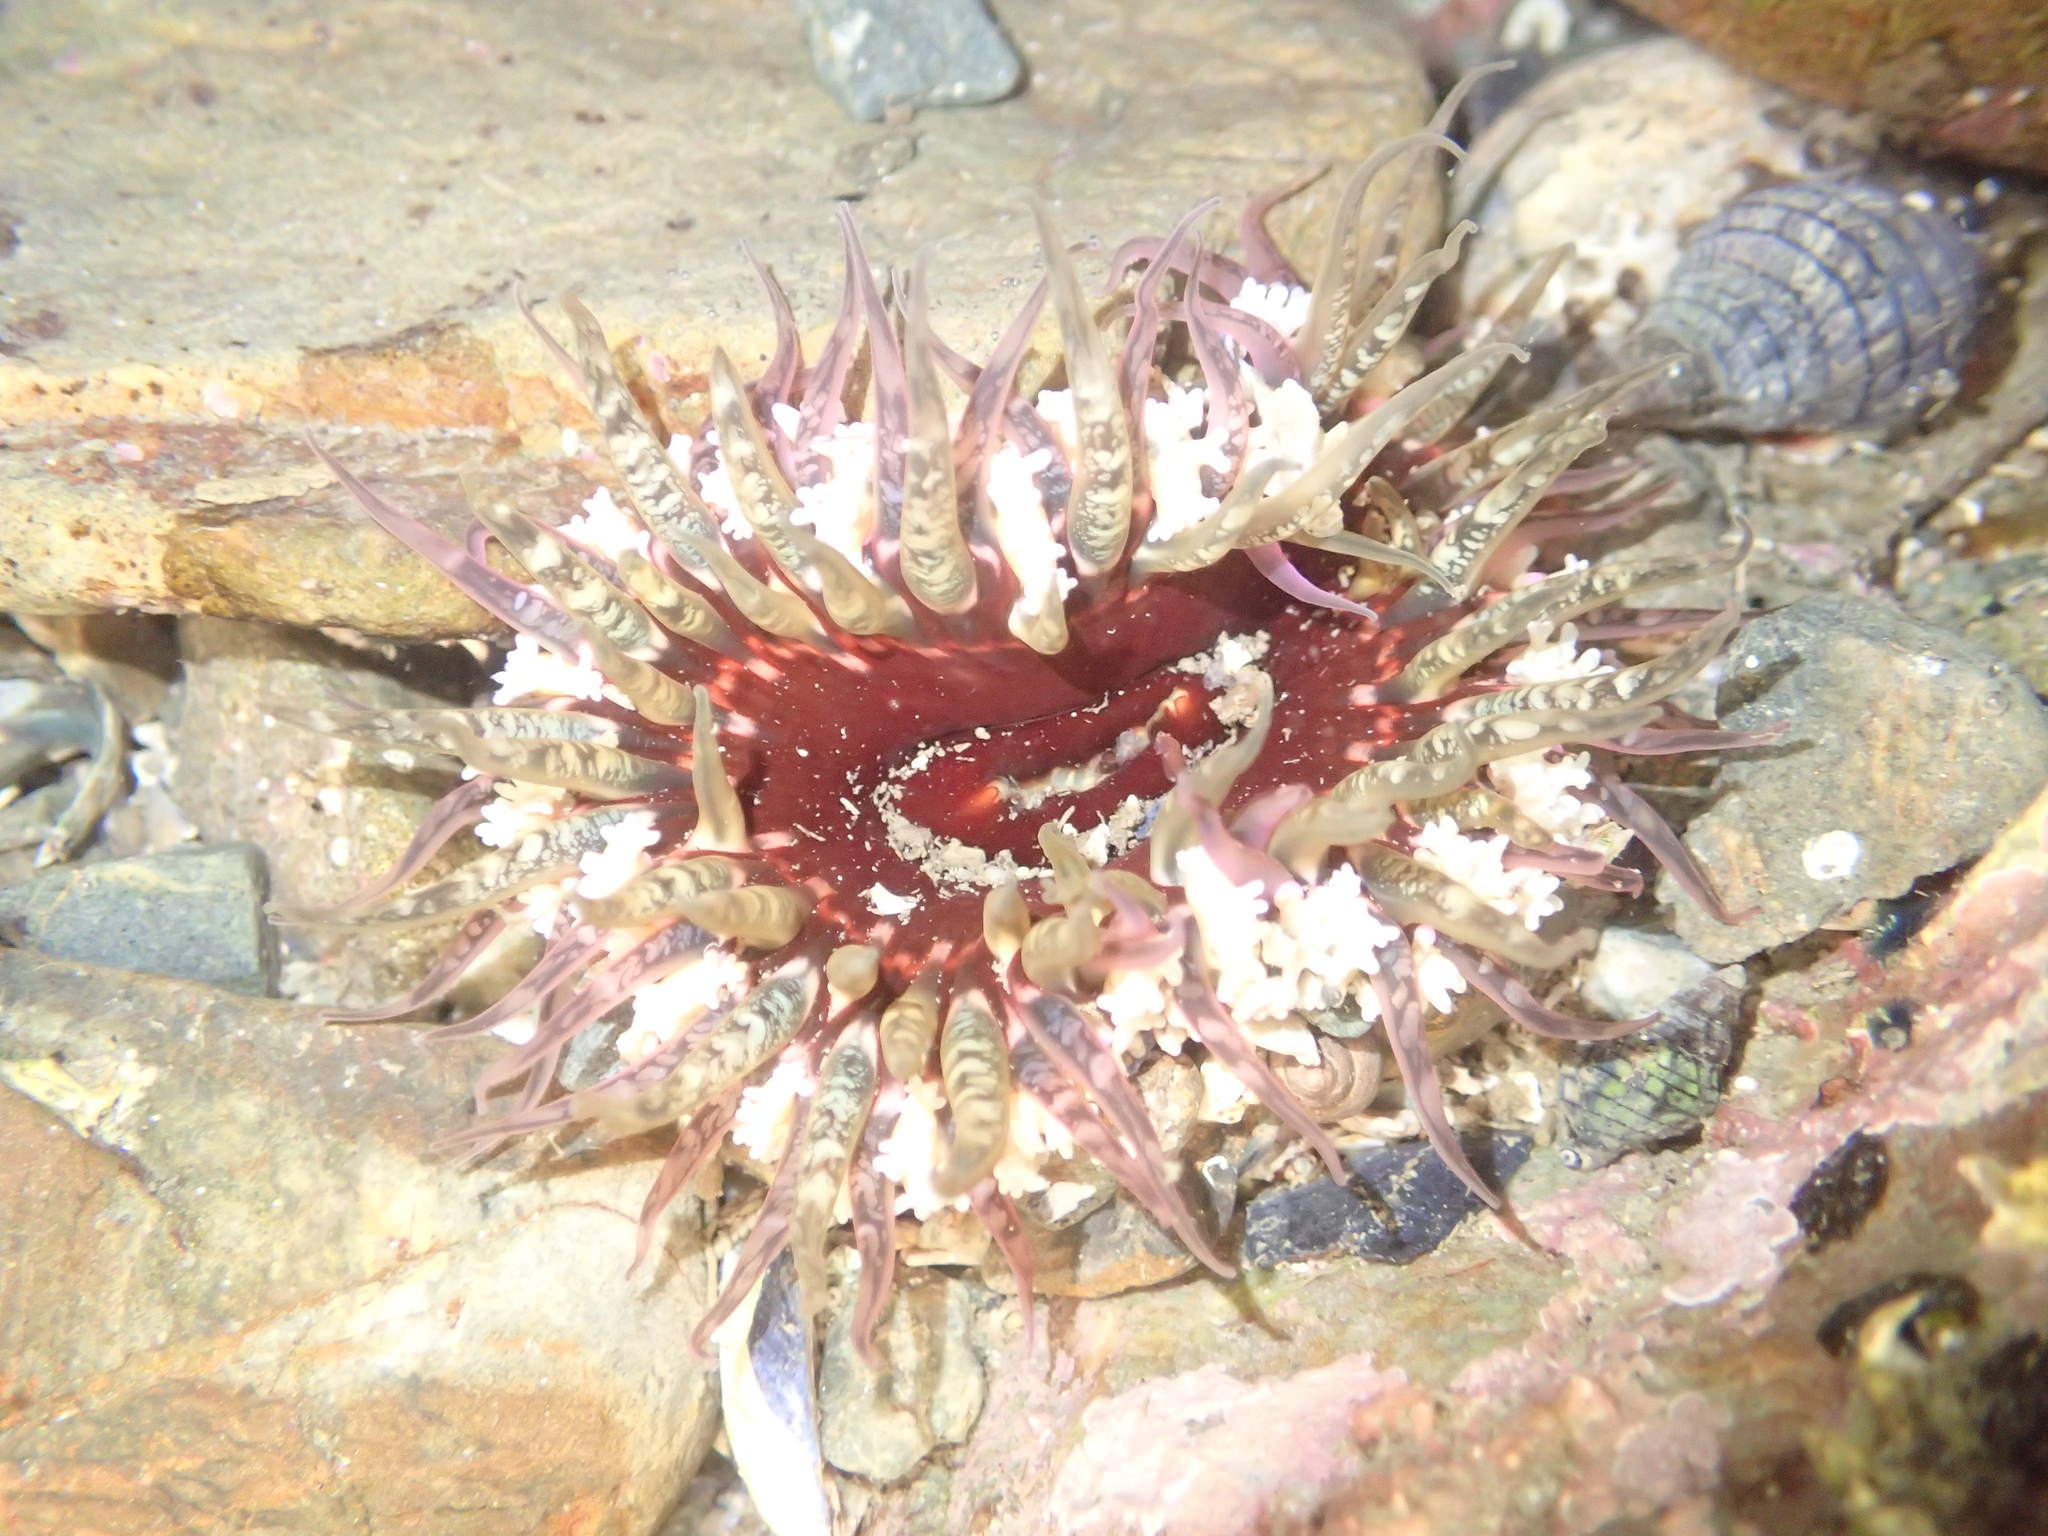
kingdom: Animalia
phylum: Cnidaria
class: Anthozoa
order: Actiniaria
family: Actiniidae
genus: Oulactis
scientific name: Oulactis muscosa
